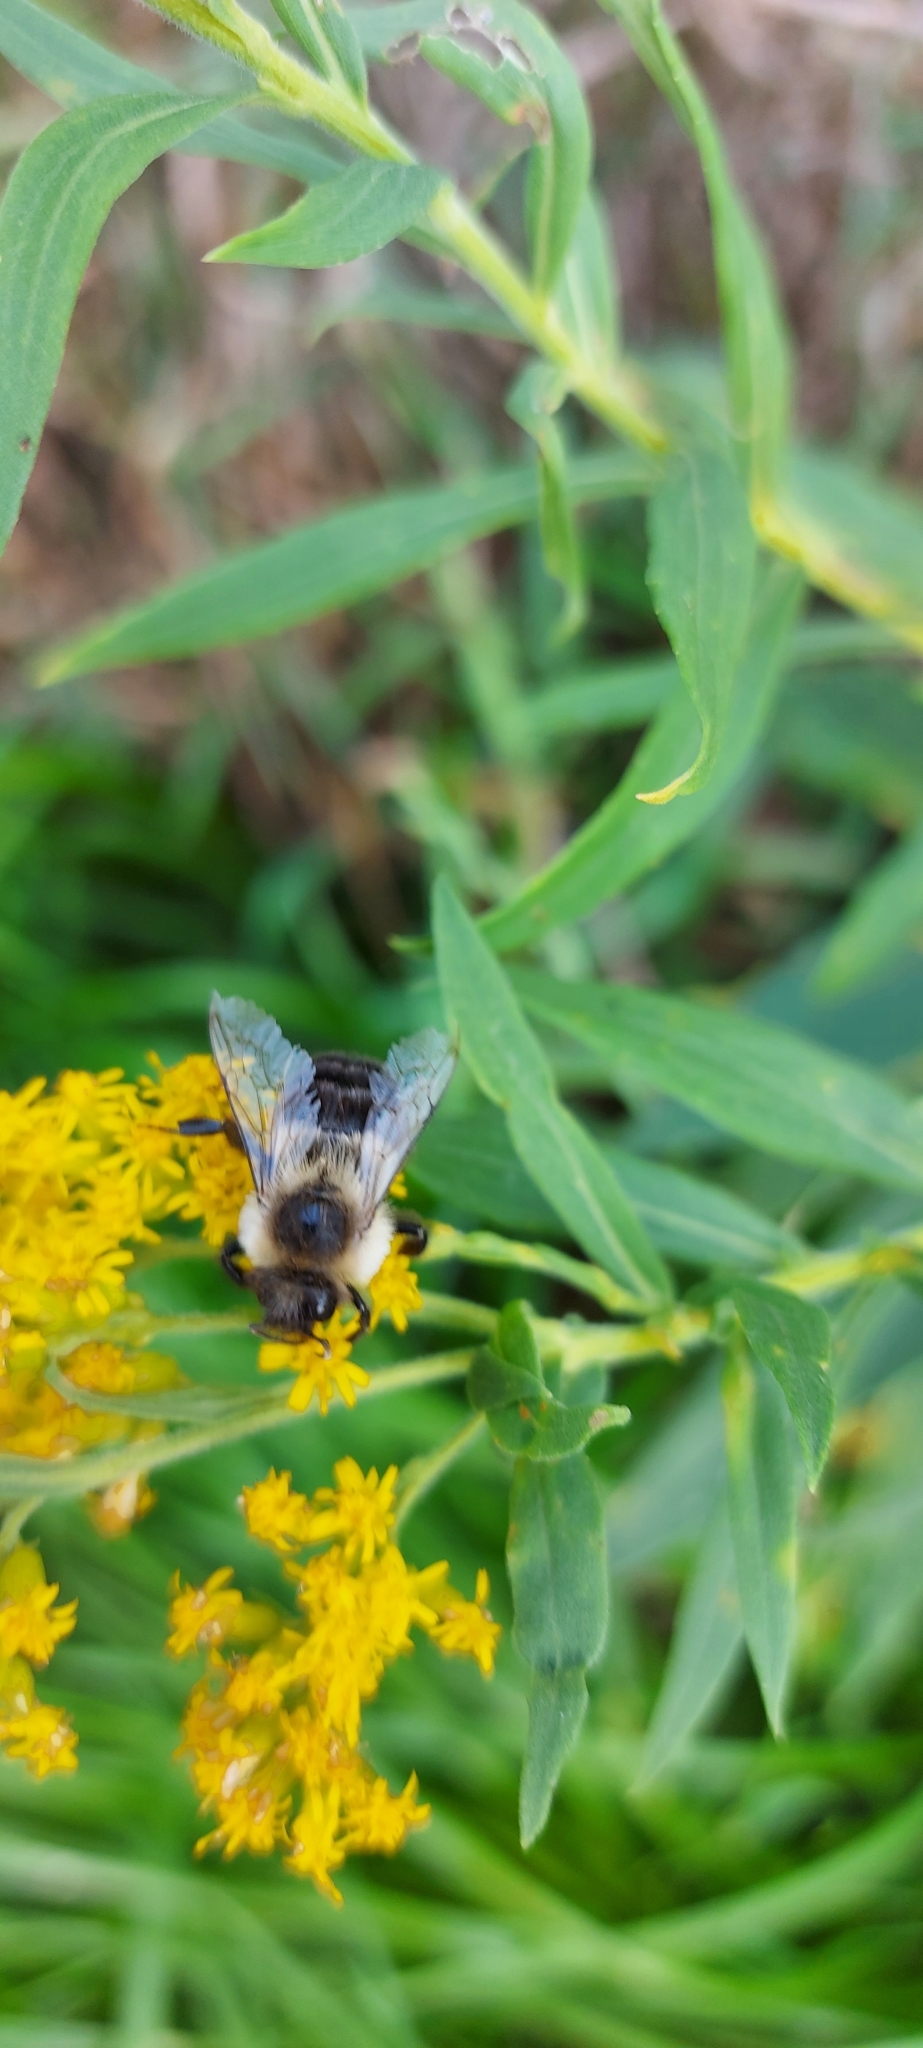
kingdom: Animalia
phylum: Arthropoda
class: Insecta
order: Hymenoptera
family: Apidae
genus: Bombus
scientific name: Bombus impatiens
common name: Common eastern bumble bee
